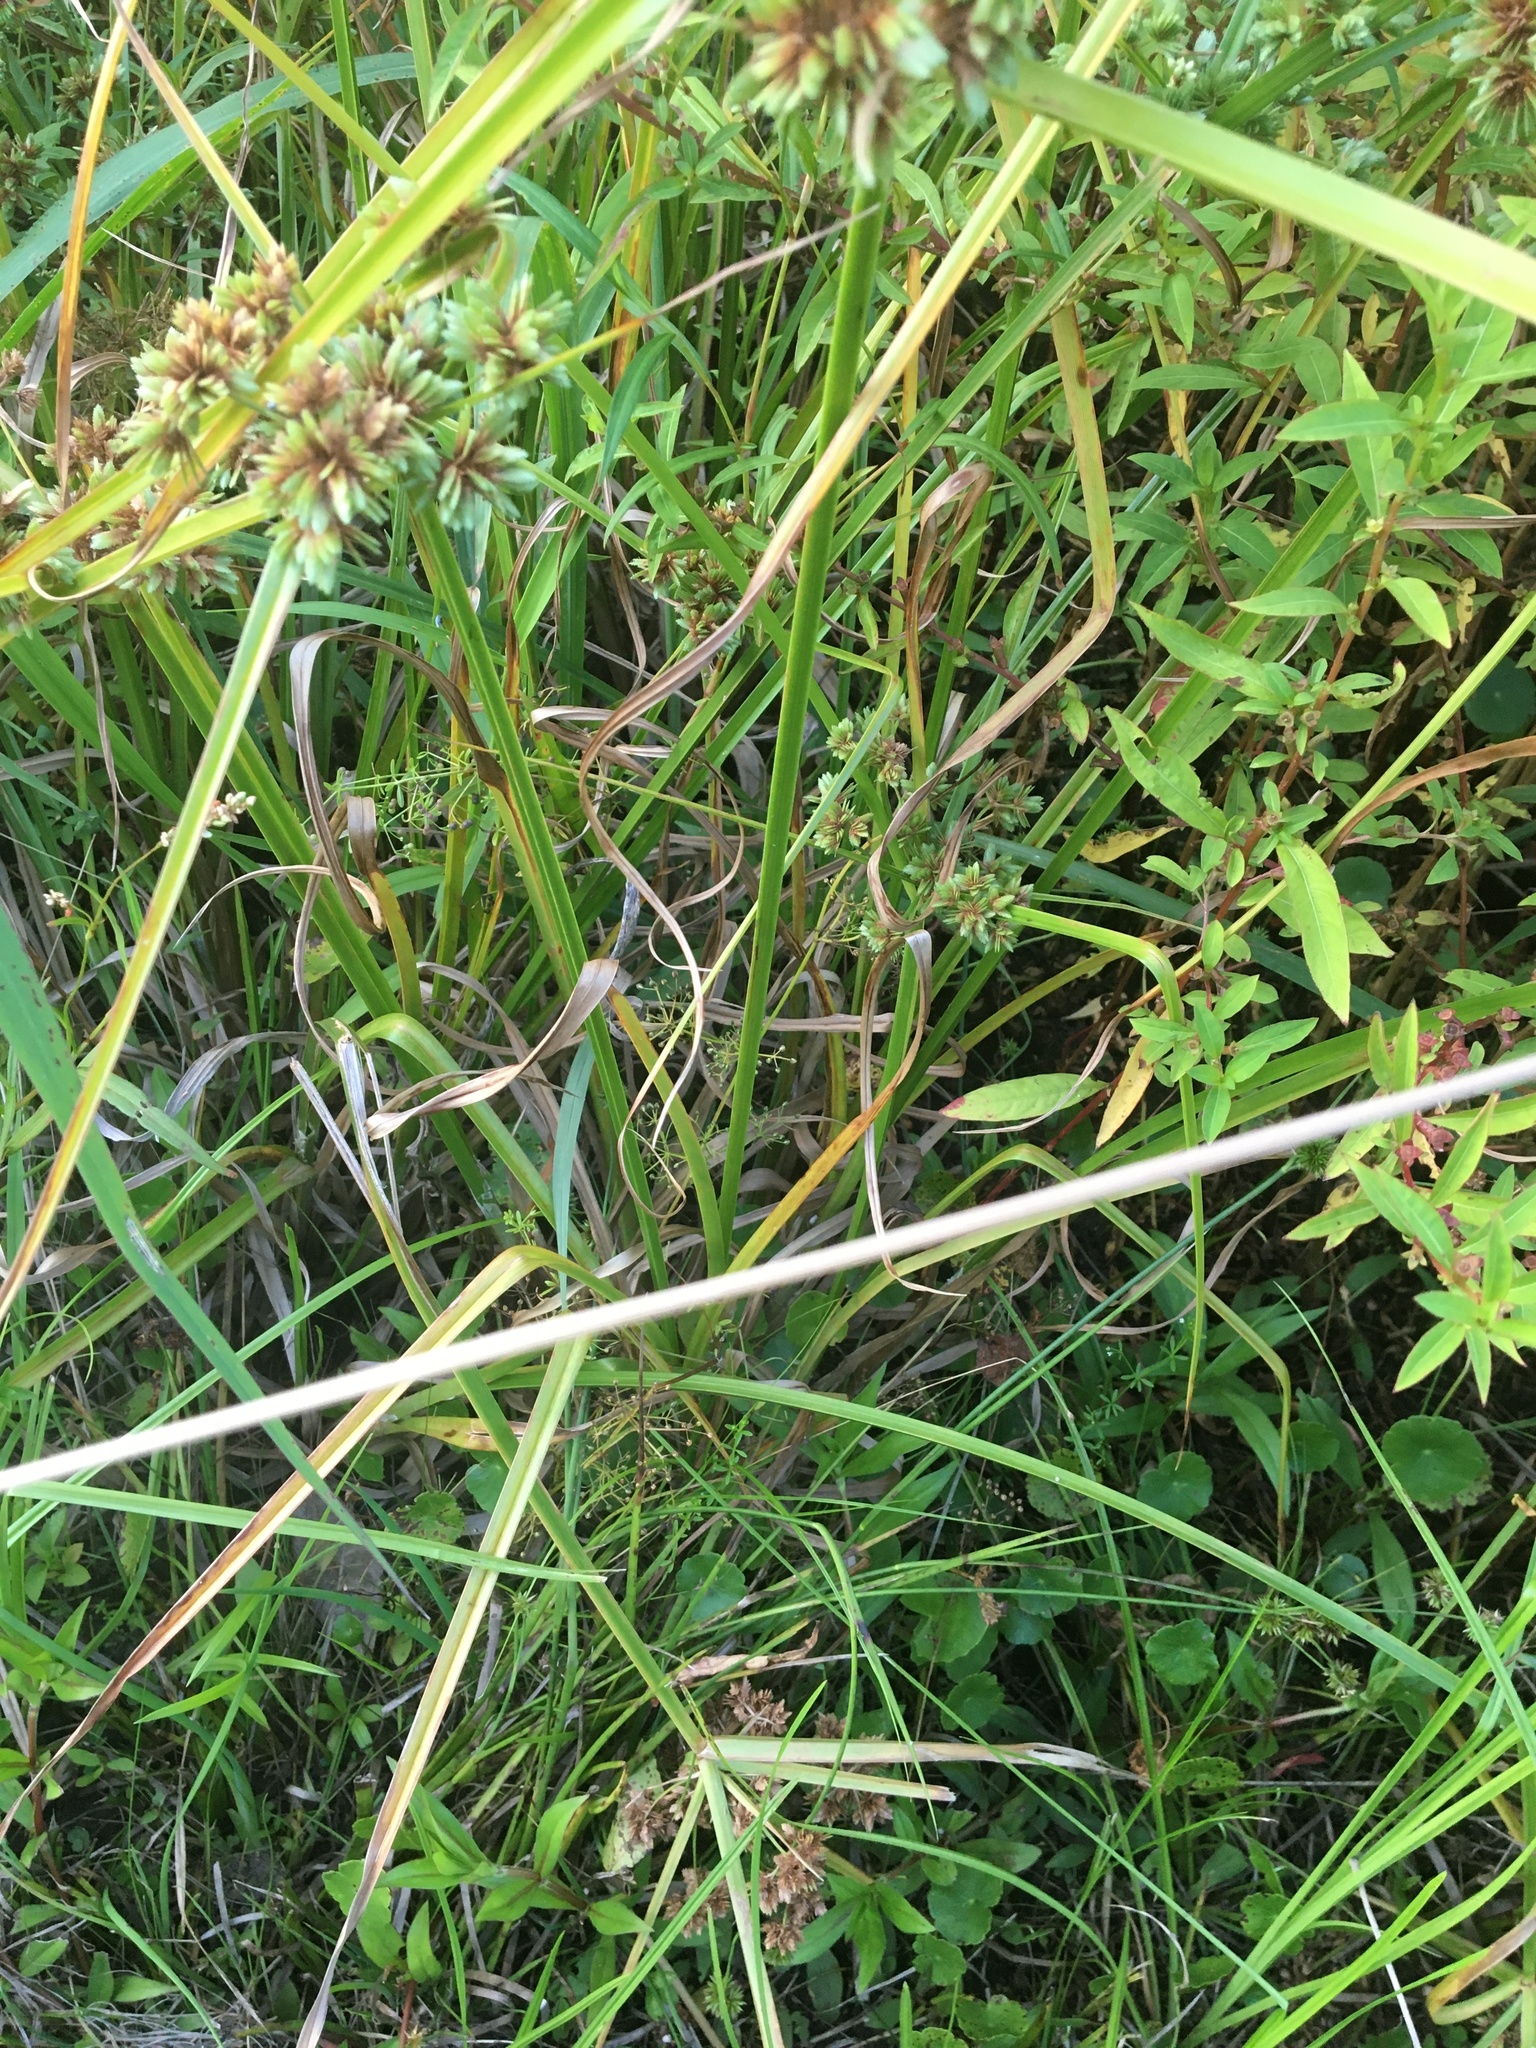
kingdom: Plantae
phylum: Tracheophyta
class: Liliopsida
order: Poales
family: Cyperaceae
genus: Cyperus
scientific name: Cyperus virens
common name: Green flatsedge
